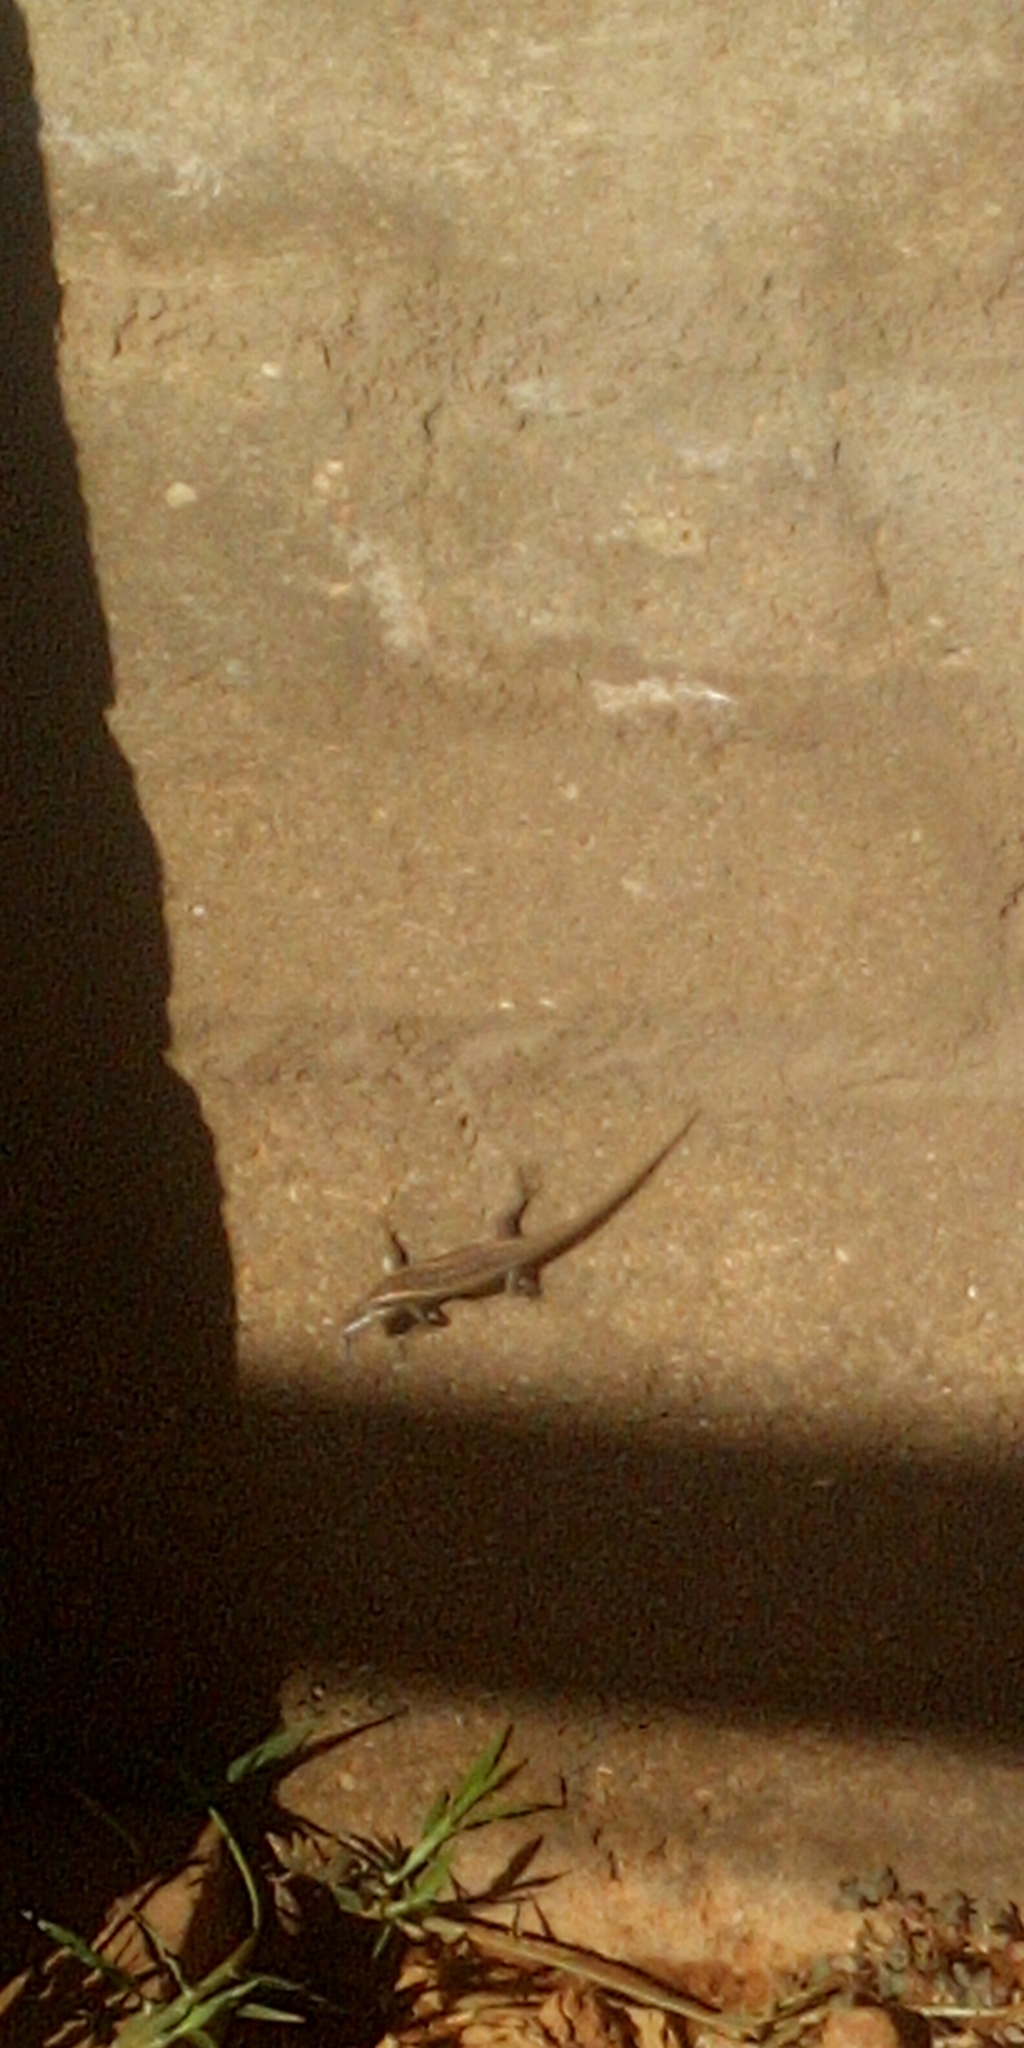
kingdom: Animalia
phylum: Chordata
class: Squamata
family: Scincidae
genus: Trachylepis
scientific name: Trachylepis spilogaster
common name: Kalahari tree skink
